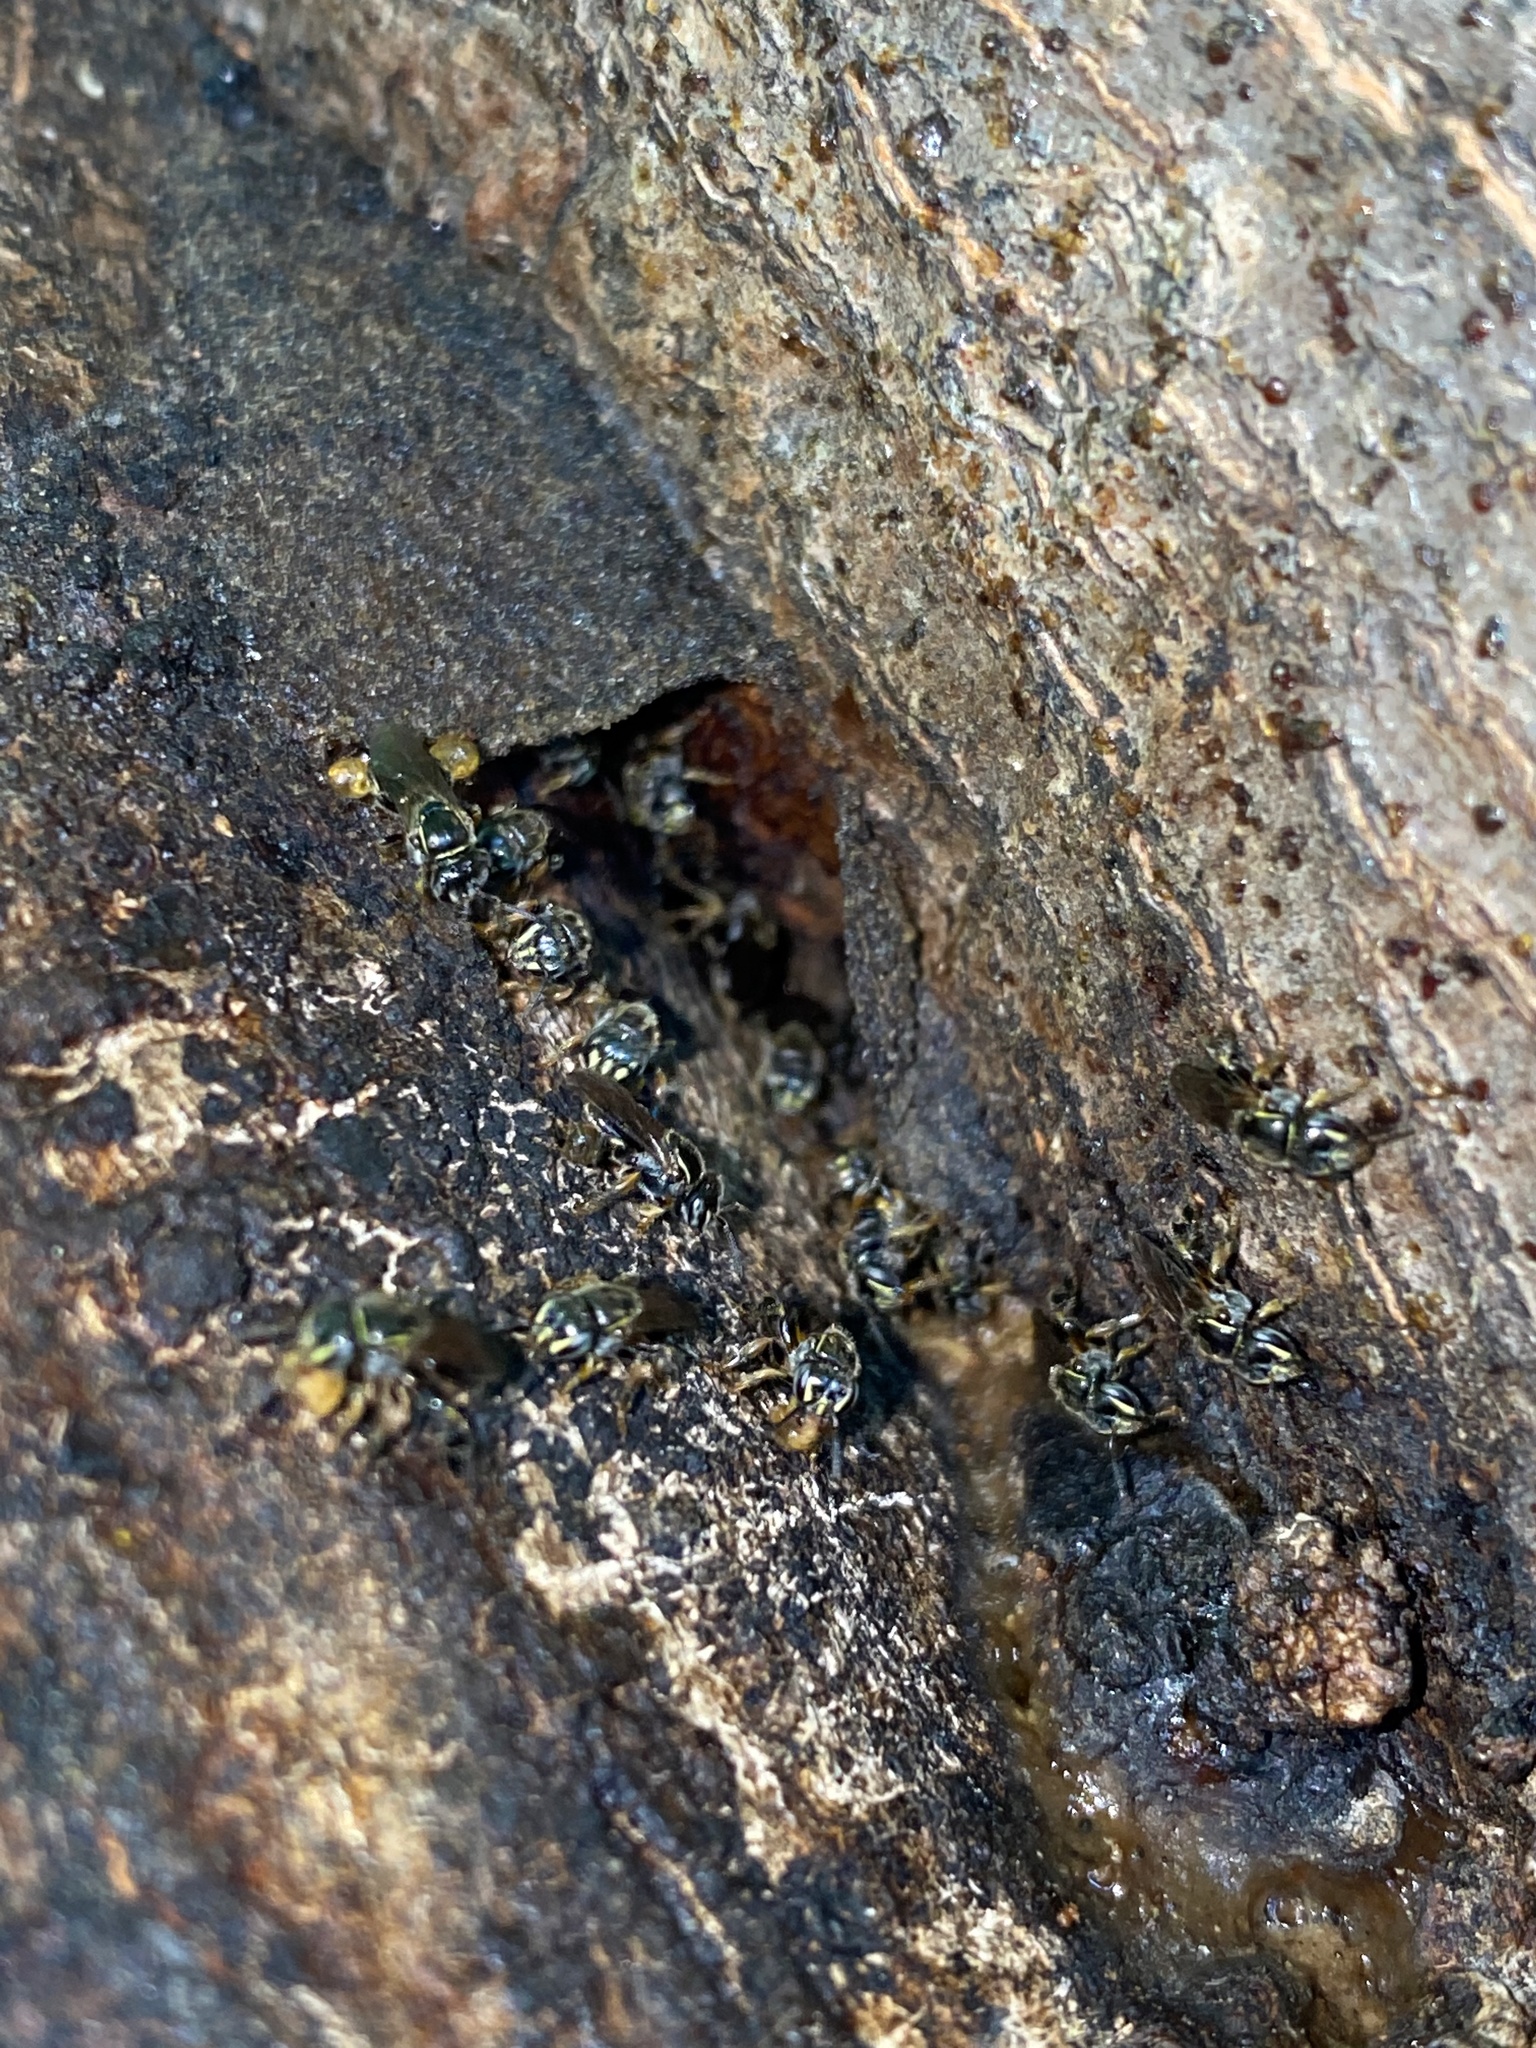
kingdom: Animalia
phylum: Arthropoda
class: Insecta
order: Hymenoptera
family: Apidae
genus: Plebeia
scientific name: Plebeia emerina
